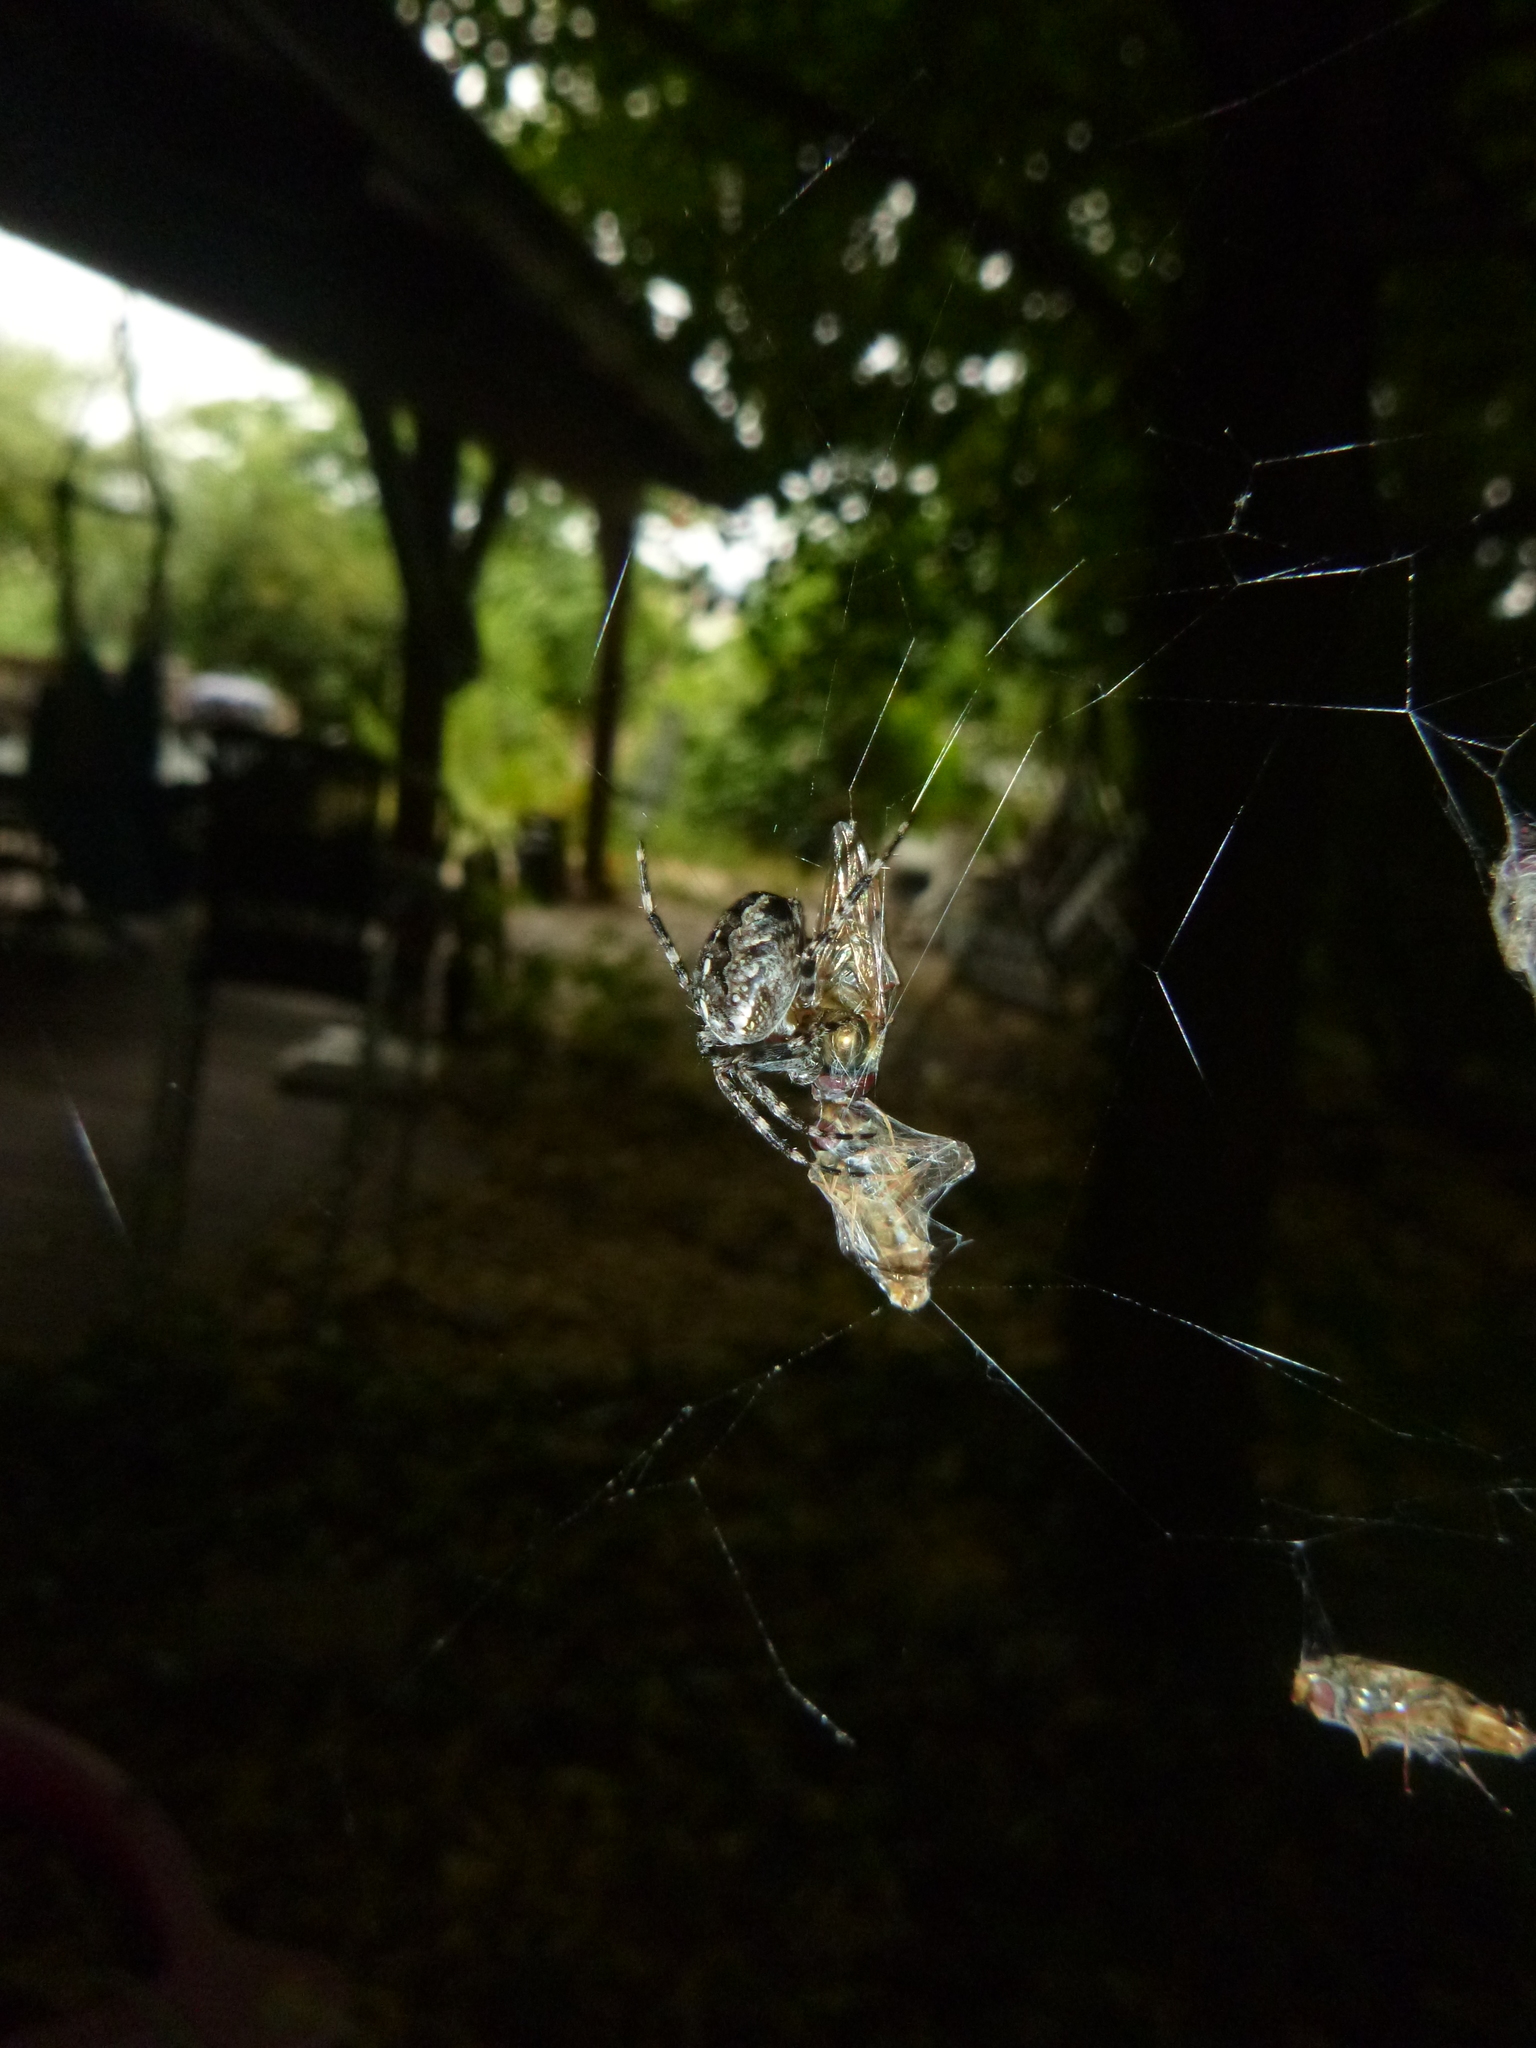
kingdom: Animalia
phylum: Arthropoda
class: Arachnida
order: Araneae
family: Araneidae
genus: Araneus
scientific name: Araneus diadematus
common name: Cross orbweaver
